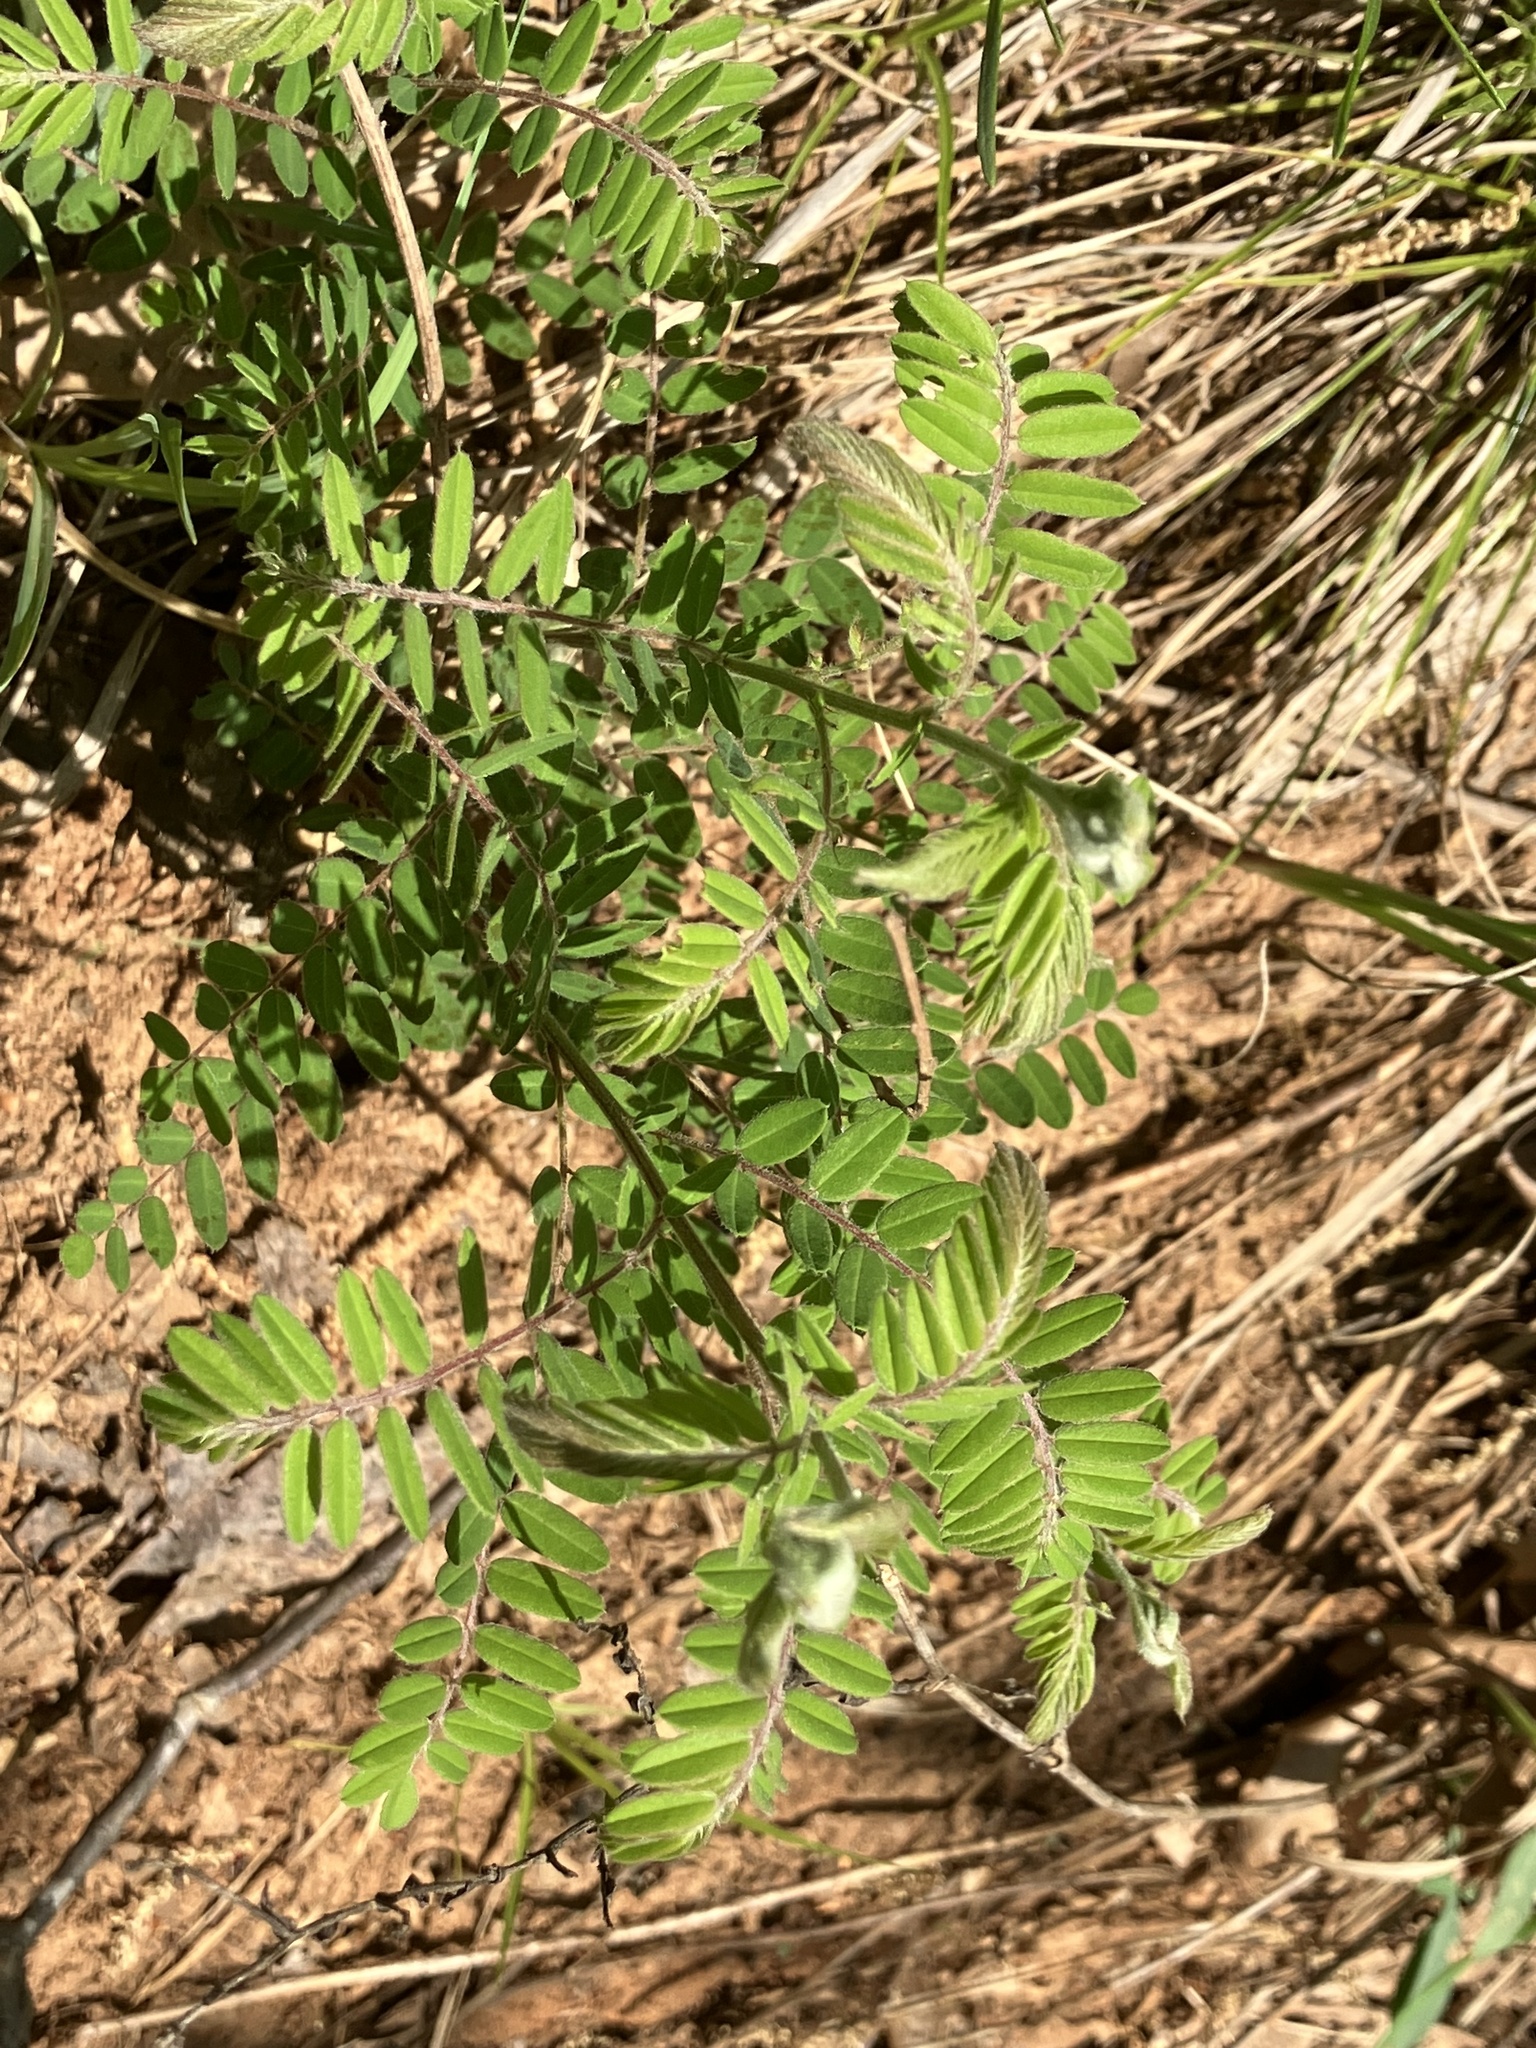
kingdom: Plantae
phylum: Tracheophyta
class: Magnoliopsida
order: Fabales
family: Fabaceae
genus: Amorpha
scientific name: Amorpha canescens
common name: Leadplant
